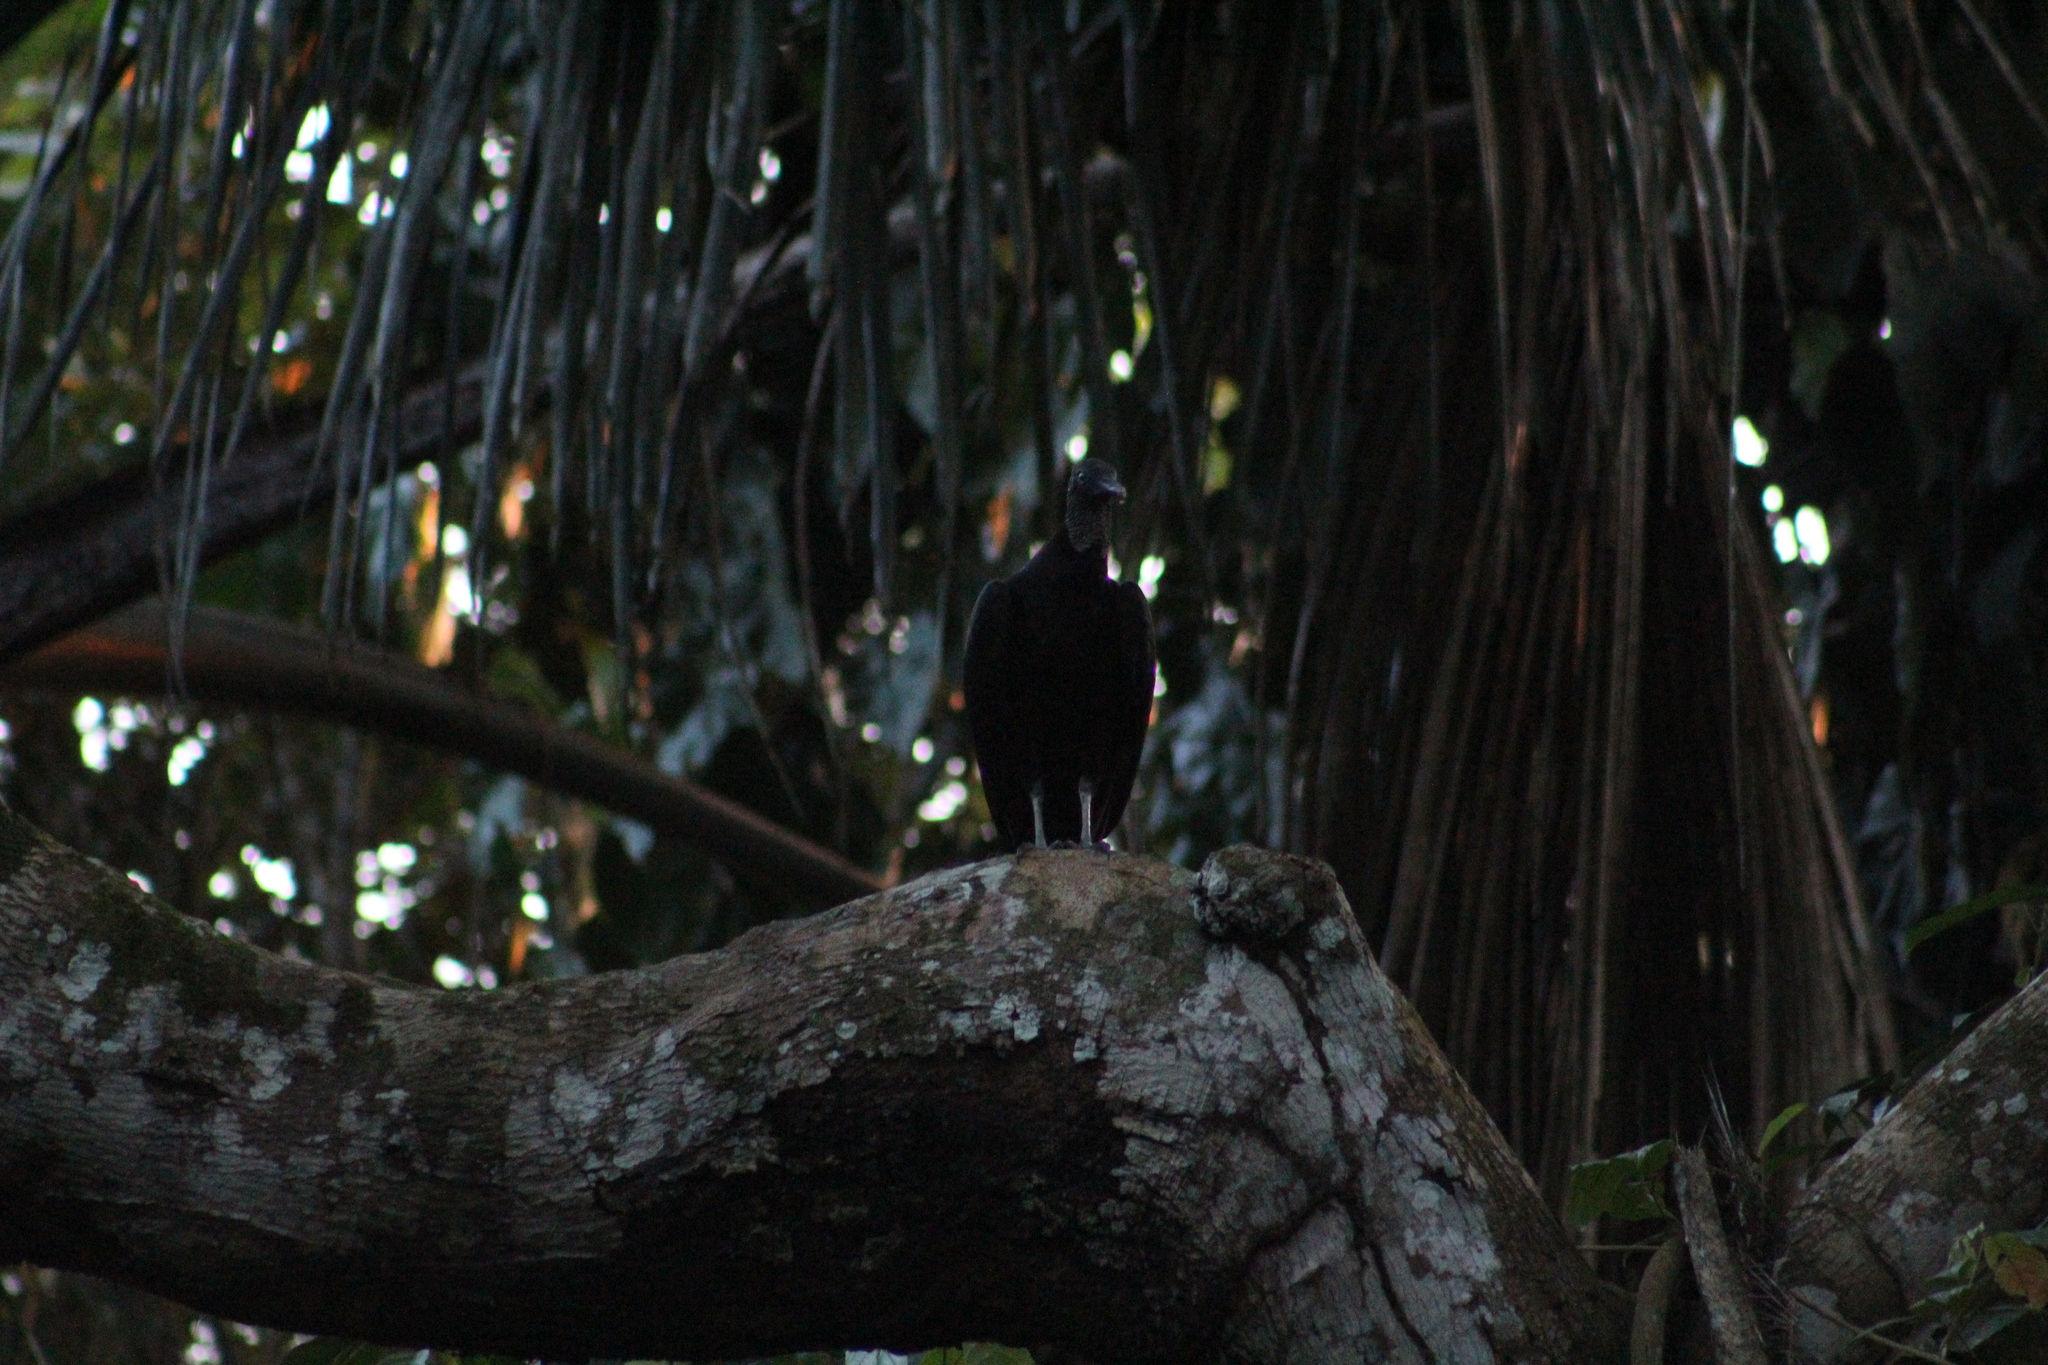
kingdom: Animalia
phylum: Chordata
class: Aves
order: Accipitriformes
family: Cathartidae
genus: Coragyps
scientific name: Coragyps atratus
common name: Black vulture
